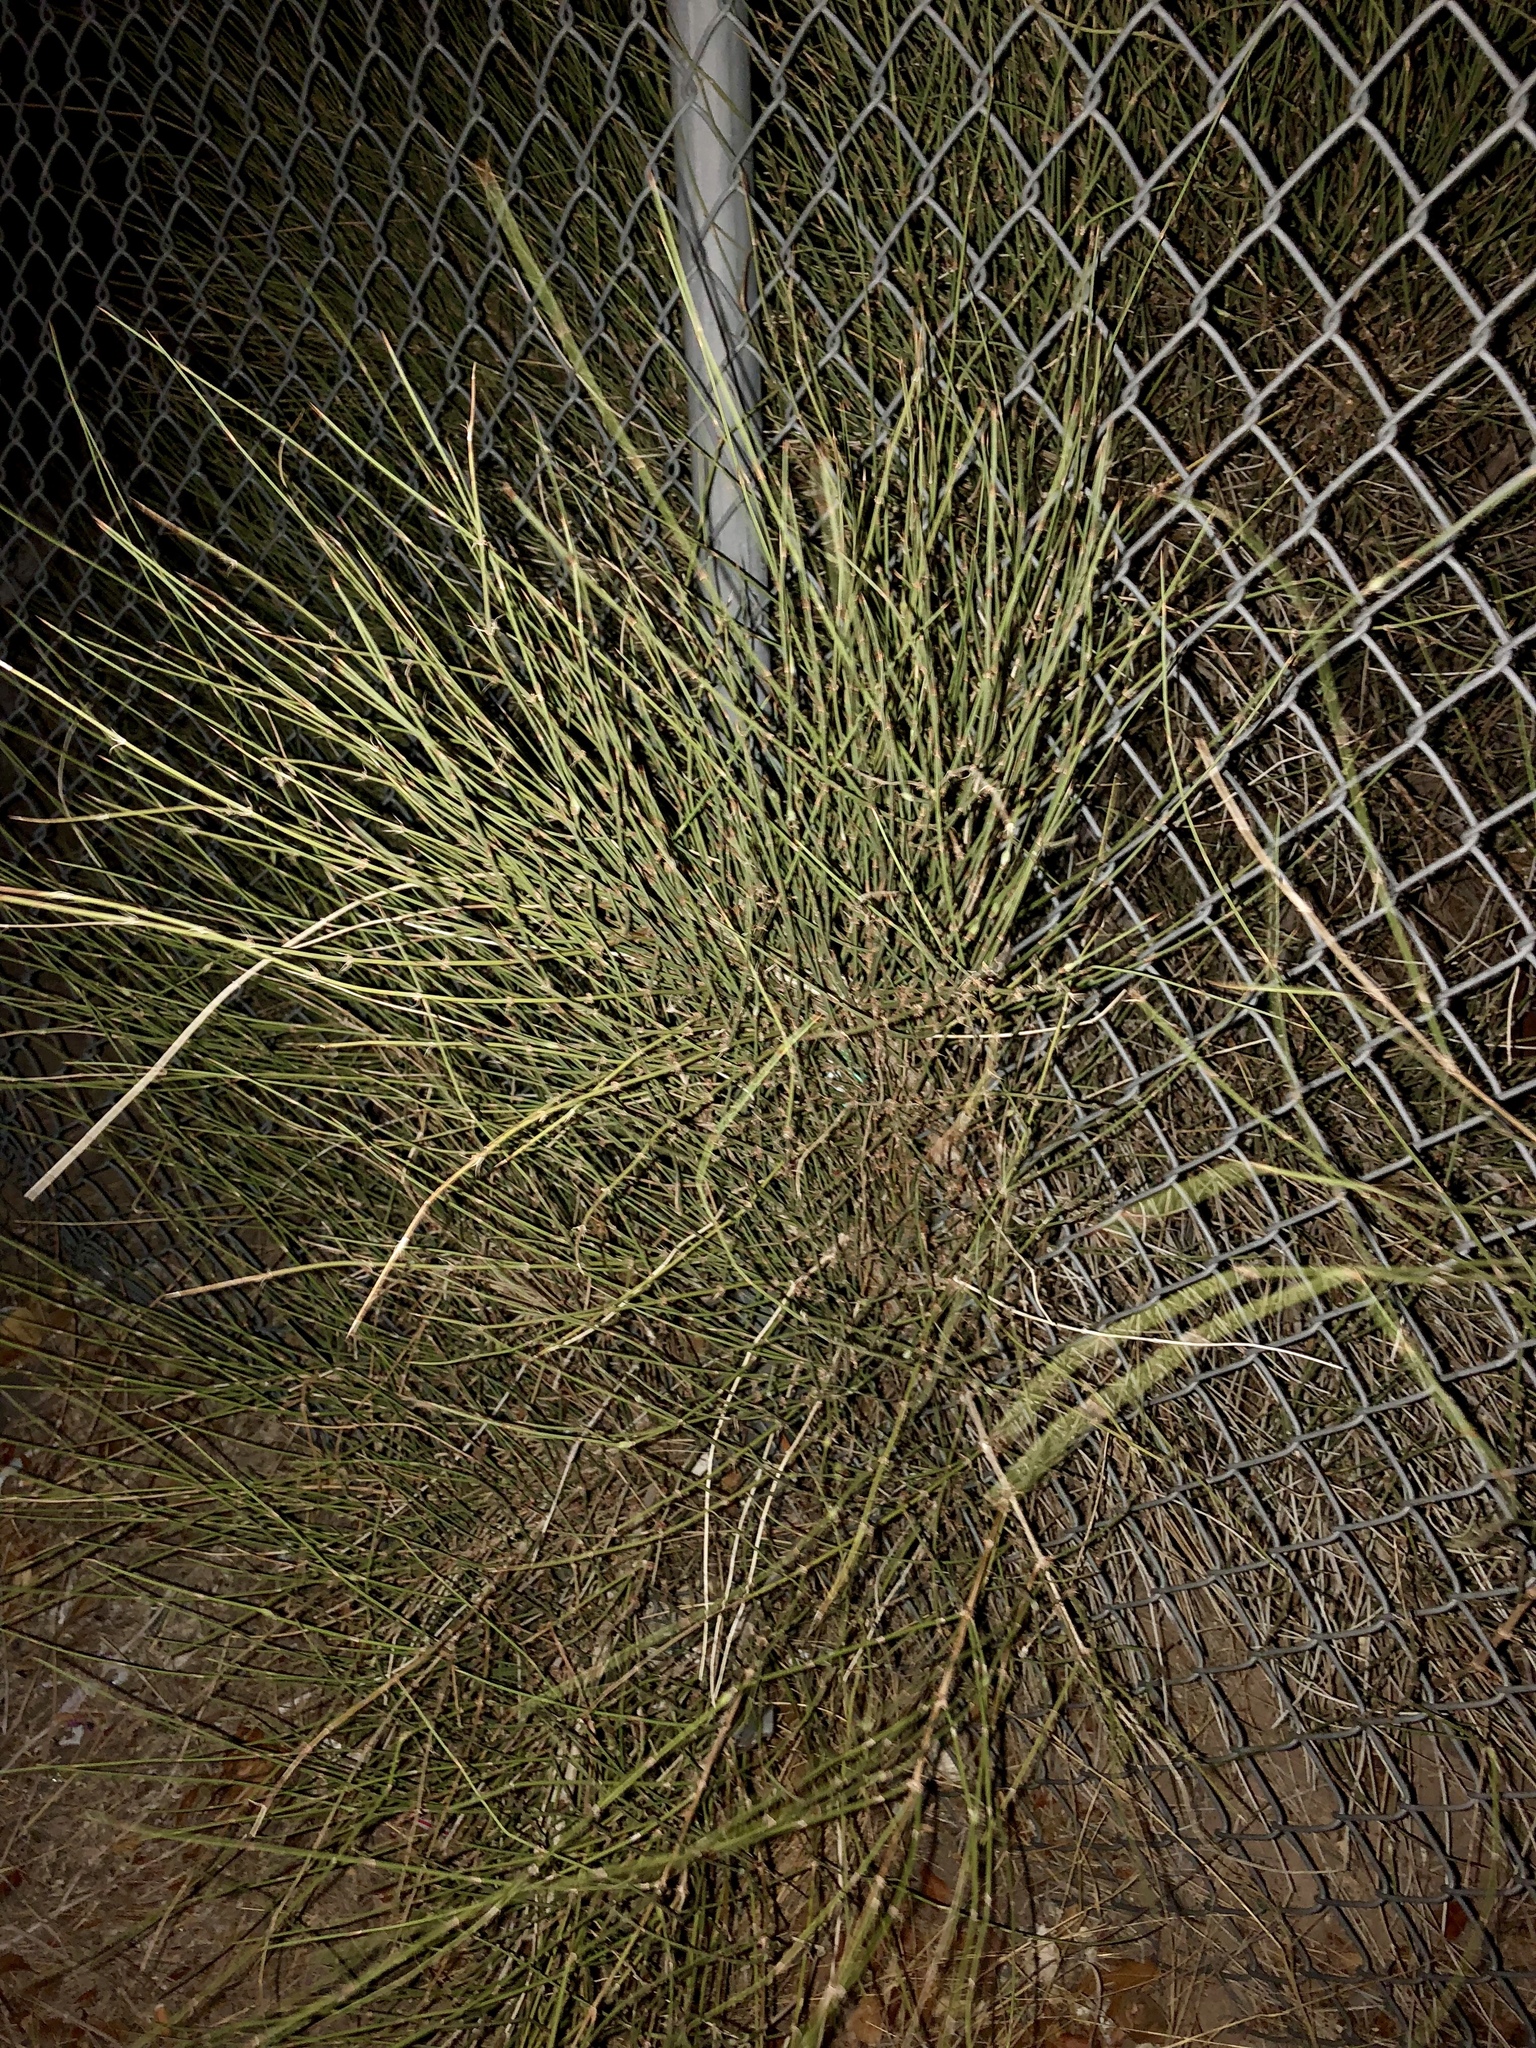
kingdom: Plantae
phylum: Tracheophyta
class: Gnetopsida
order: Ephedrales
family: Ephedraceae
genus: Ephedra
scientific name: Ephedra trifurca
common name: Mexican-tea
